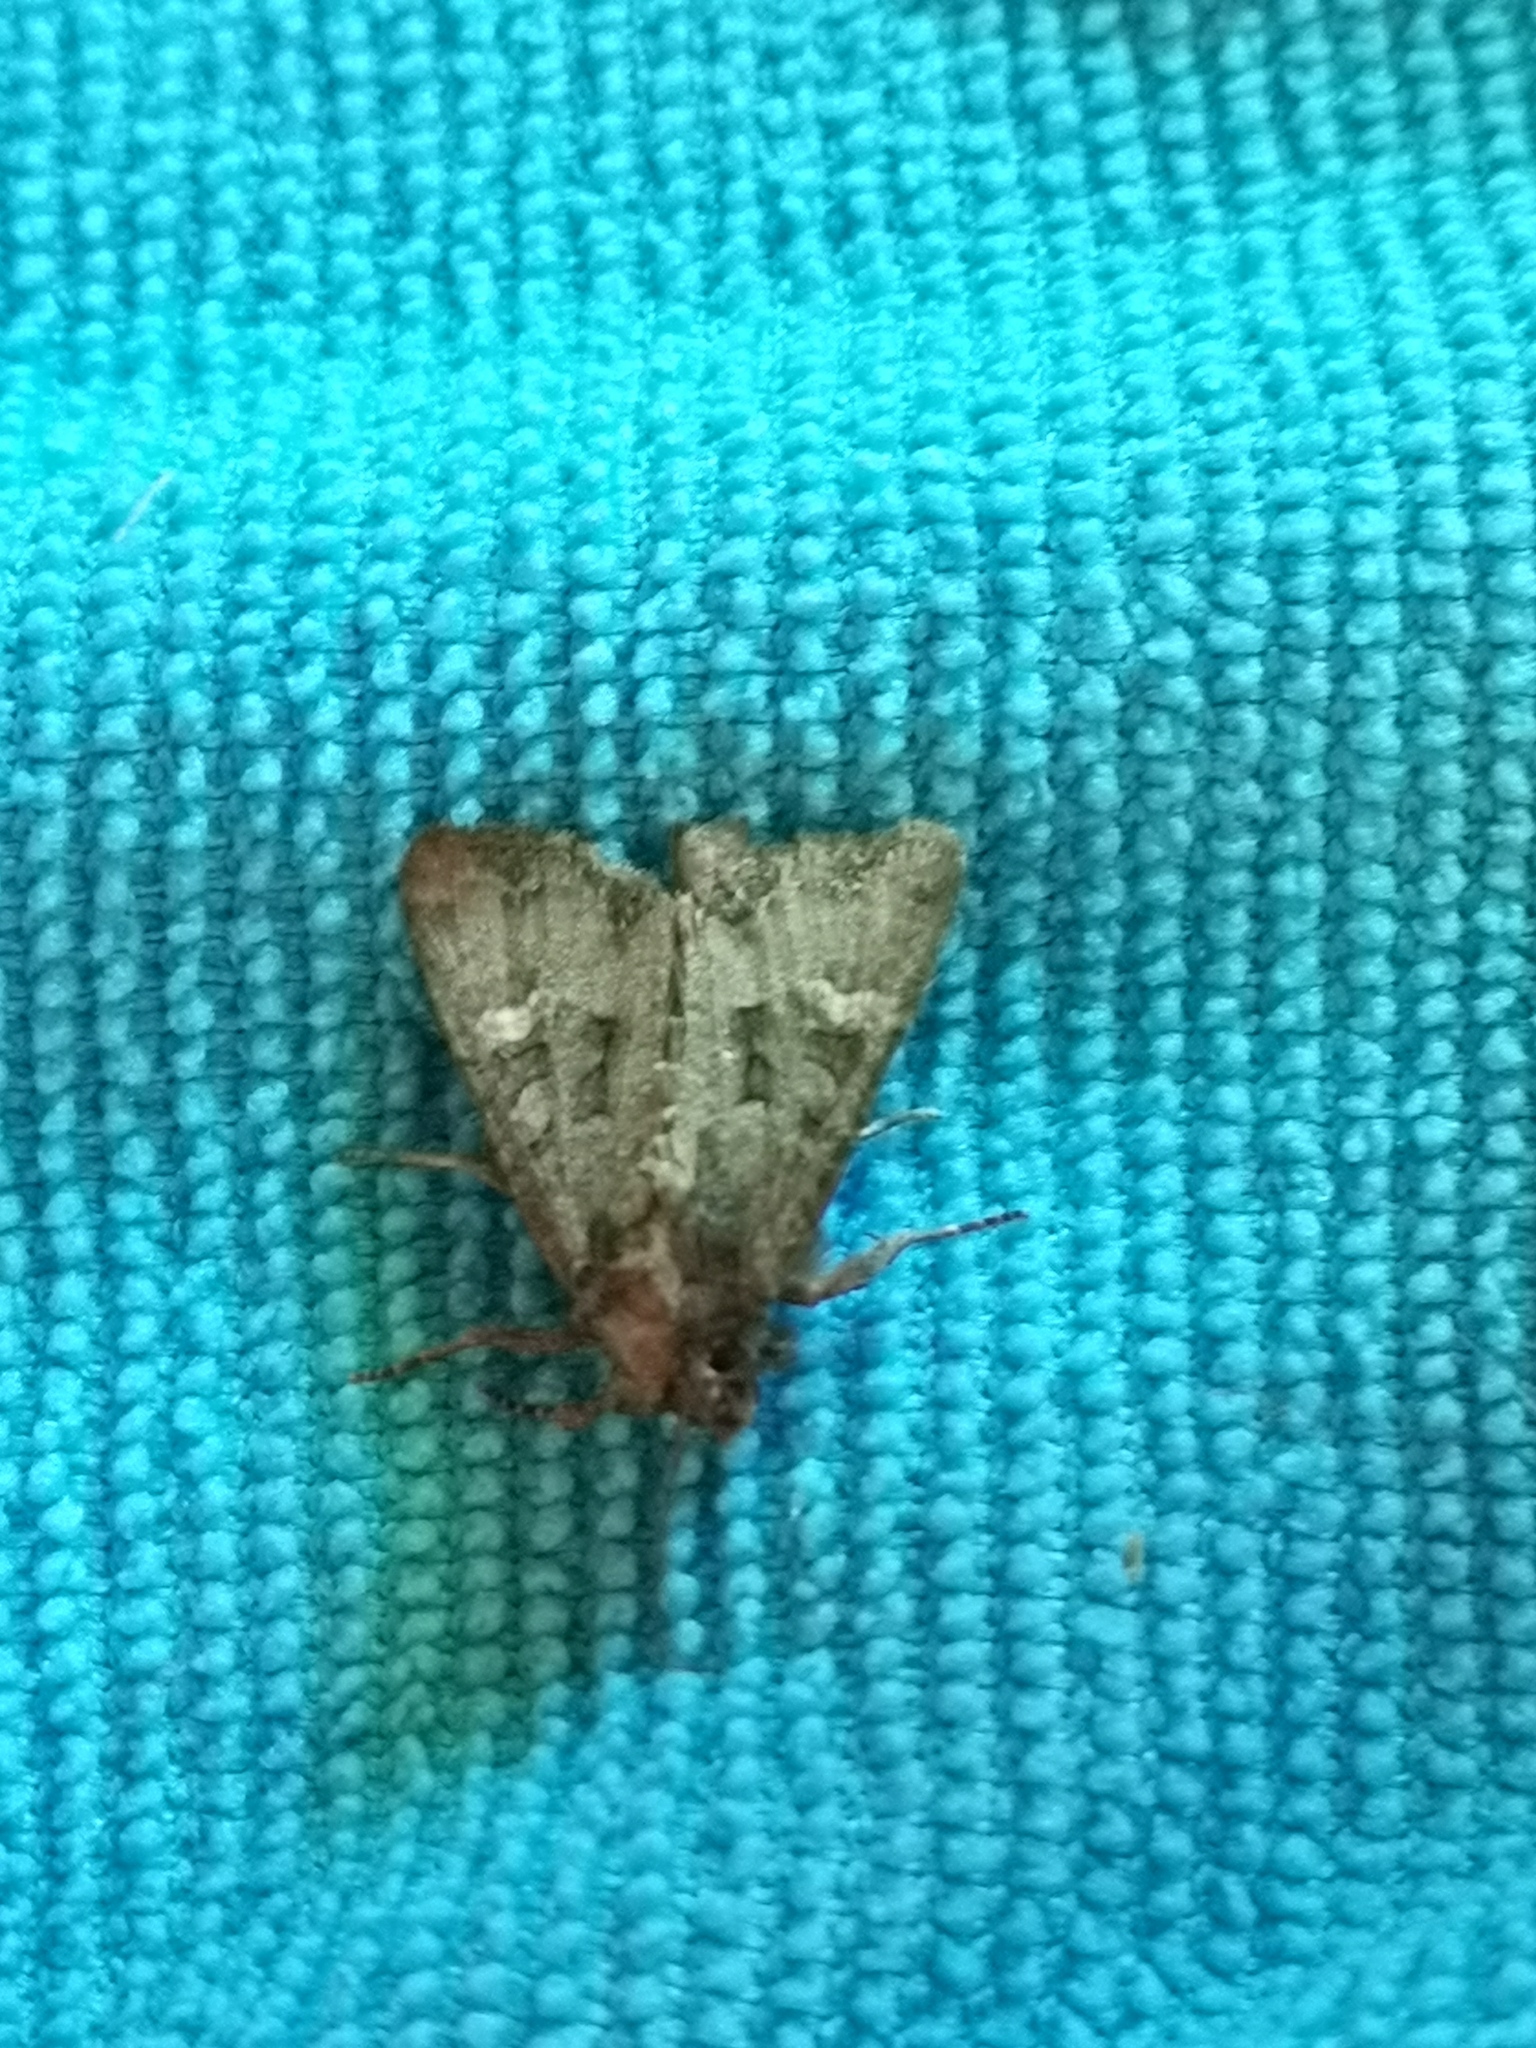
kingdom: Animalia
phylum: Arthropoda
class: Insecta
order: Lepidoptera
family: Noctuidae
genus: Mesapamea
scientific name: Mesapamea
